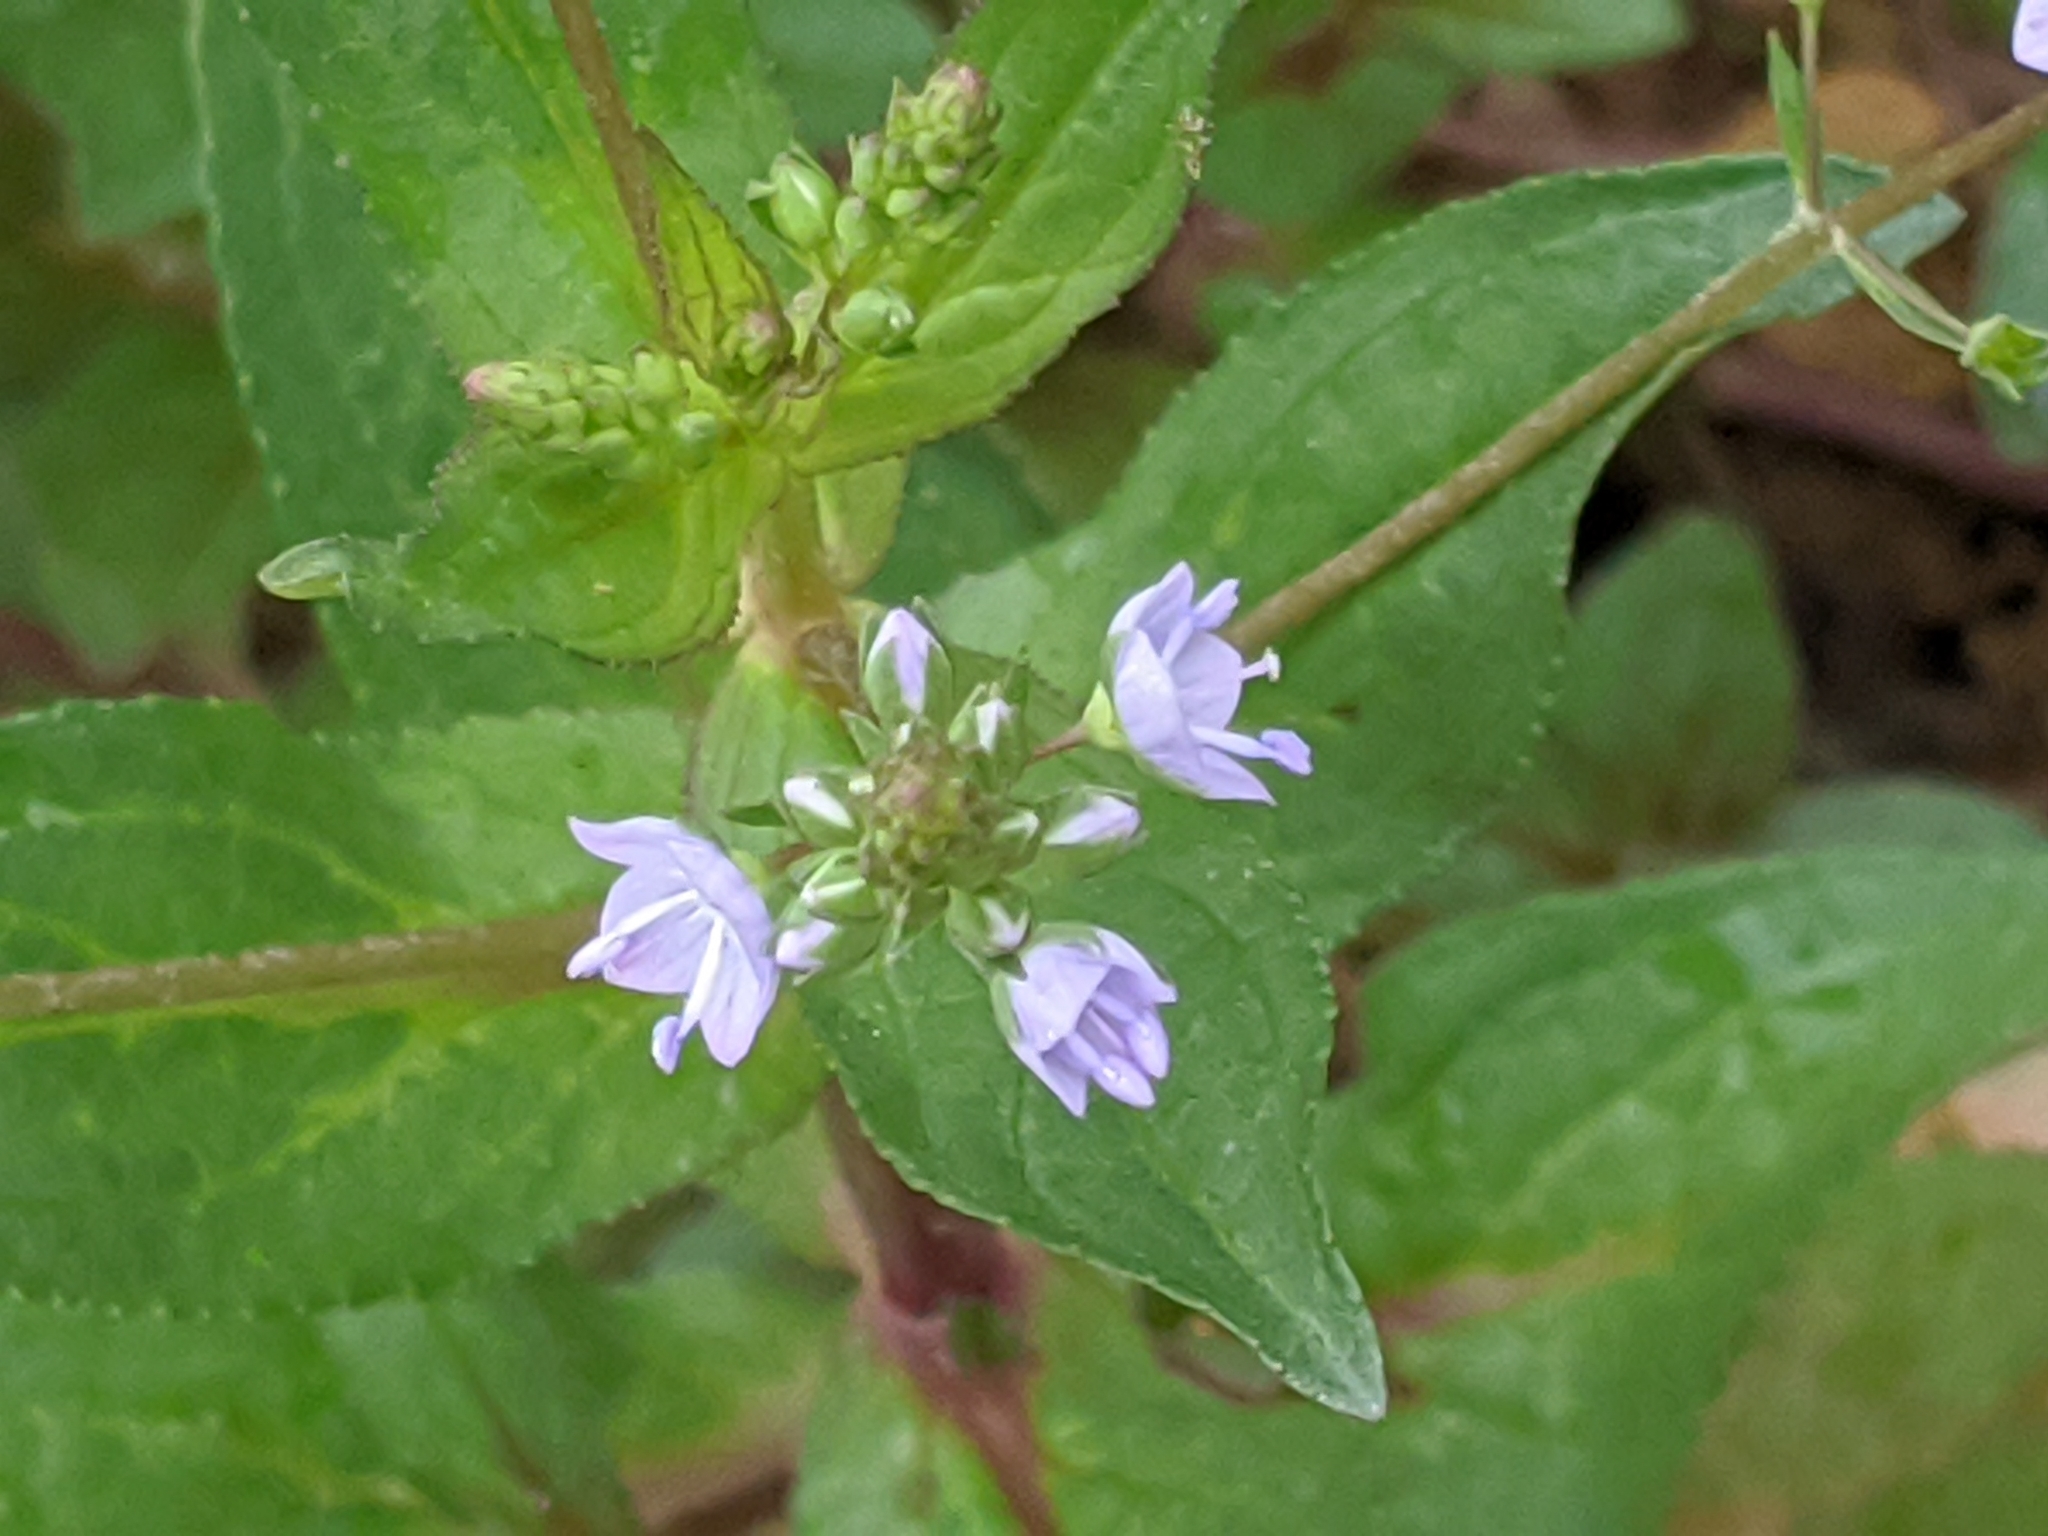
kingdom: Plantae
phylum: Tracheophyta
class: Magnoliopsida
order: Lamiales
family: Plantaginaceae
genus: Veronica
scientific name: Veronica anagallis-aquatica
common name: Water speedwell
